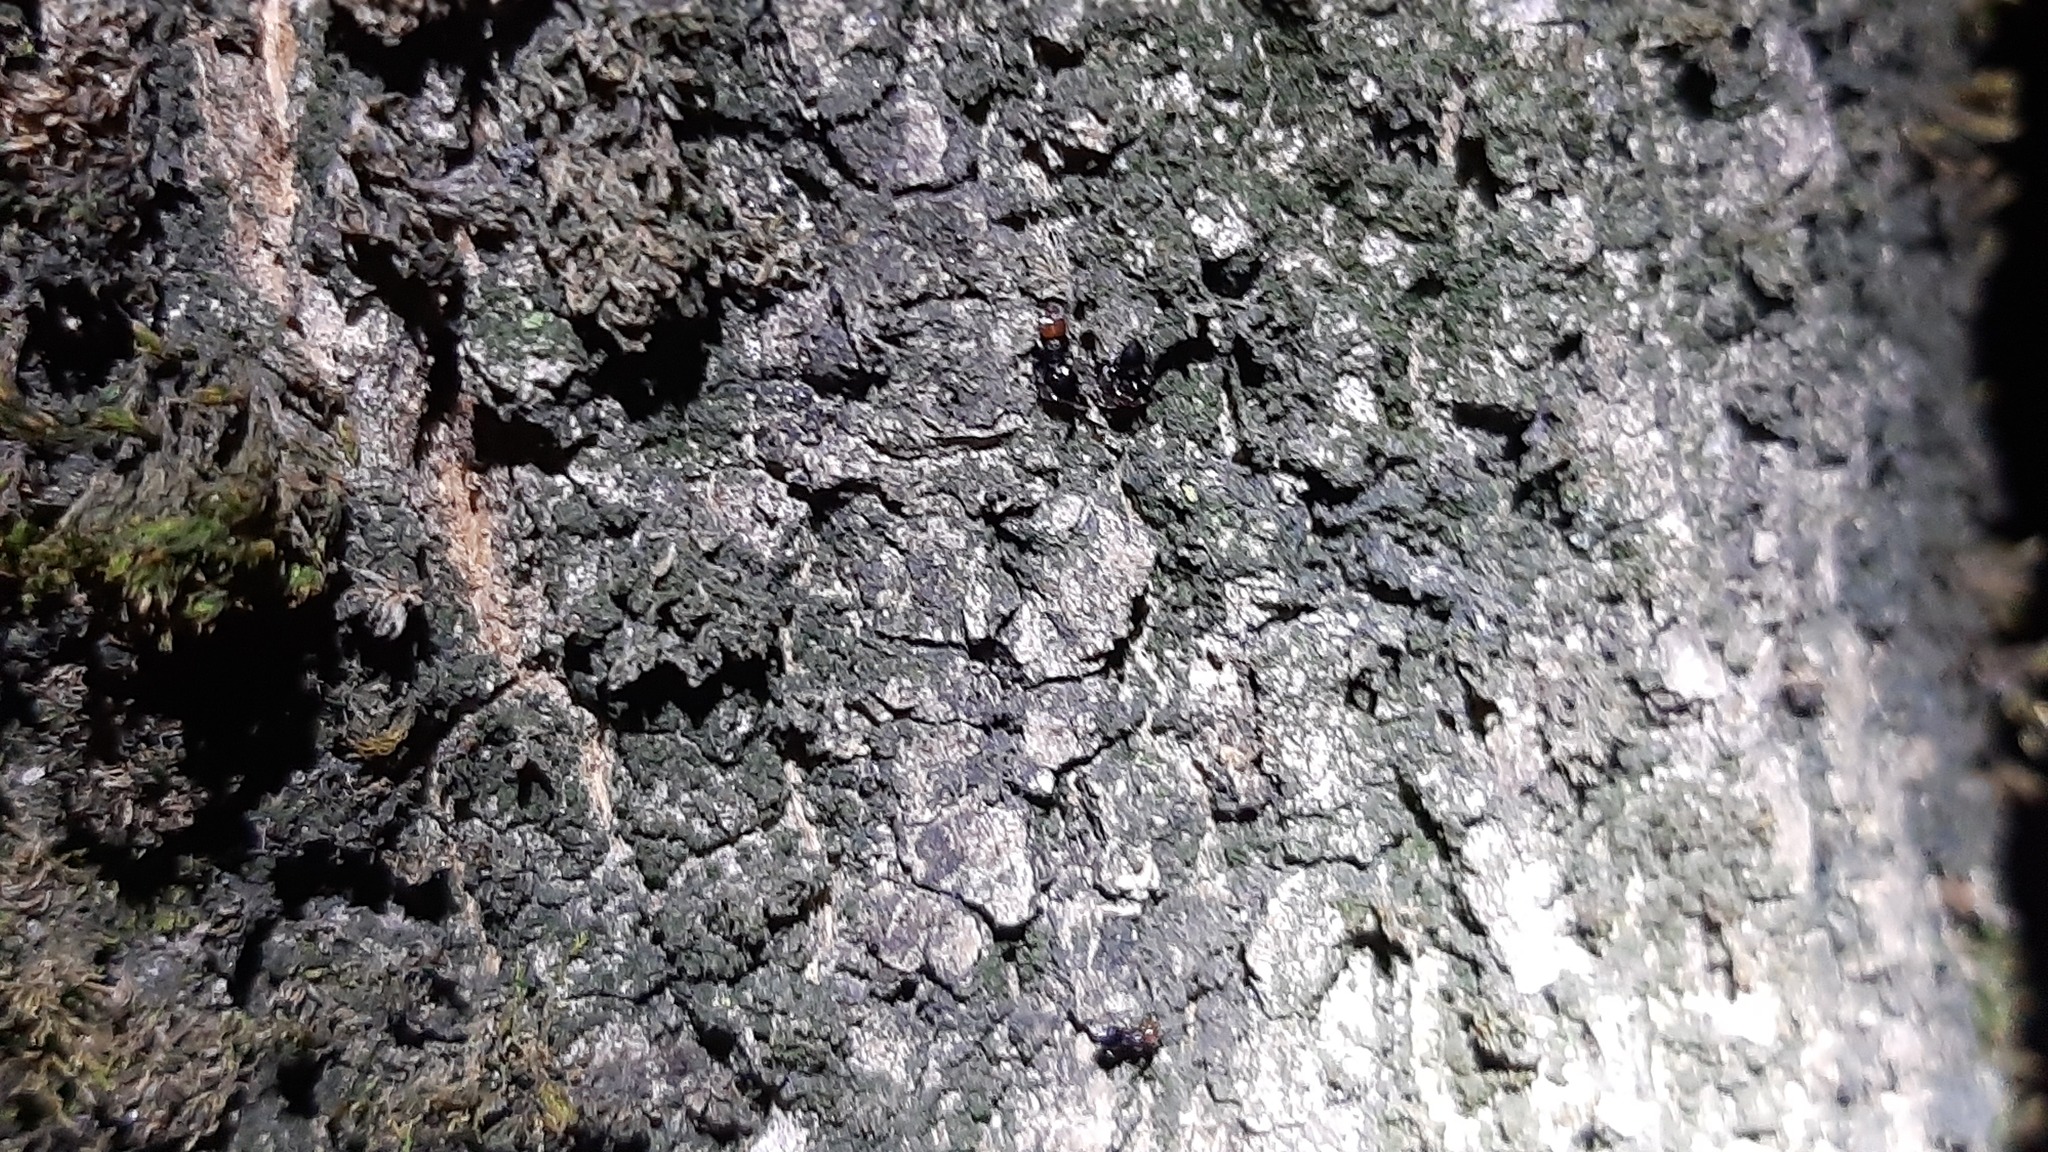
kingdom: Animalia
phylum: Arthropoda
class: Insecta
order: Hymenoptera
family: Formicidae
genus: Crematogaster
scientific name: Crematogaster scutellaris
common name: Fourmi du liège
